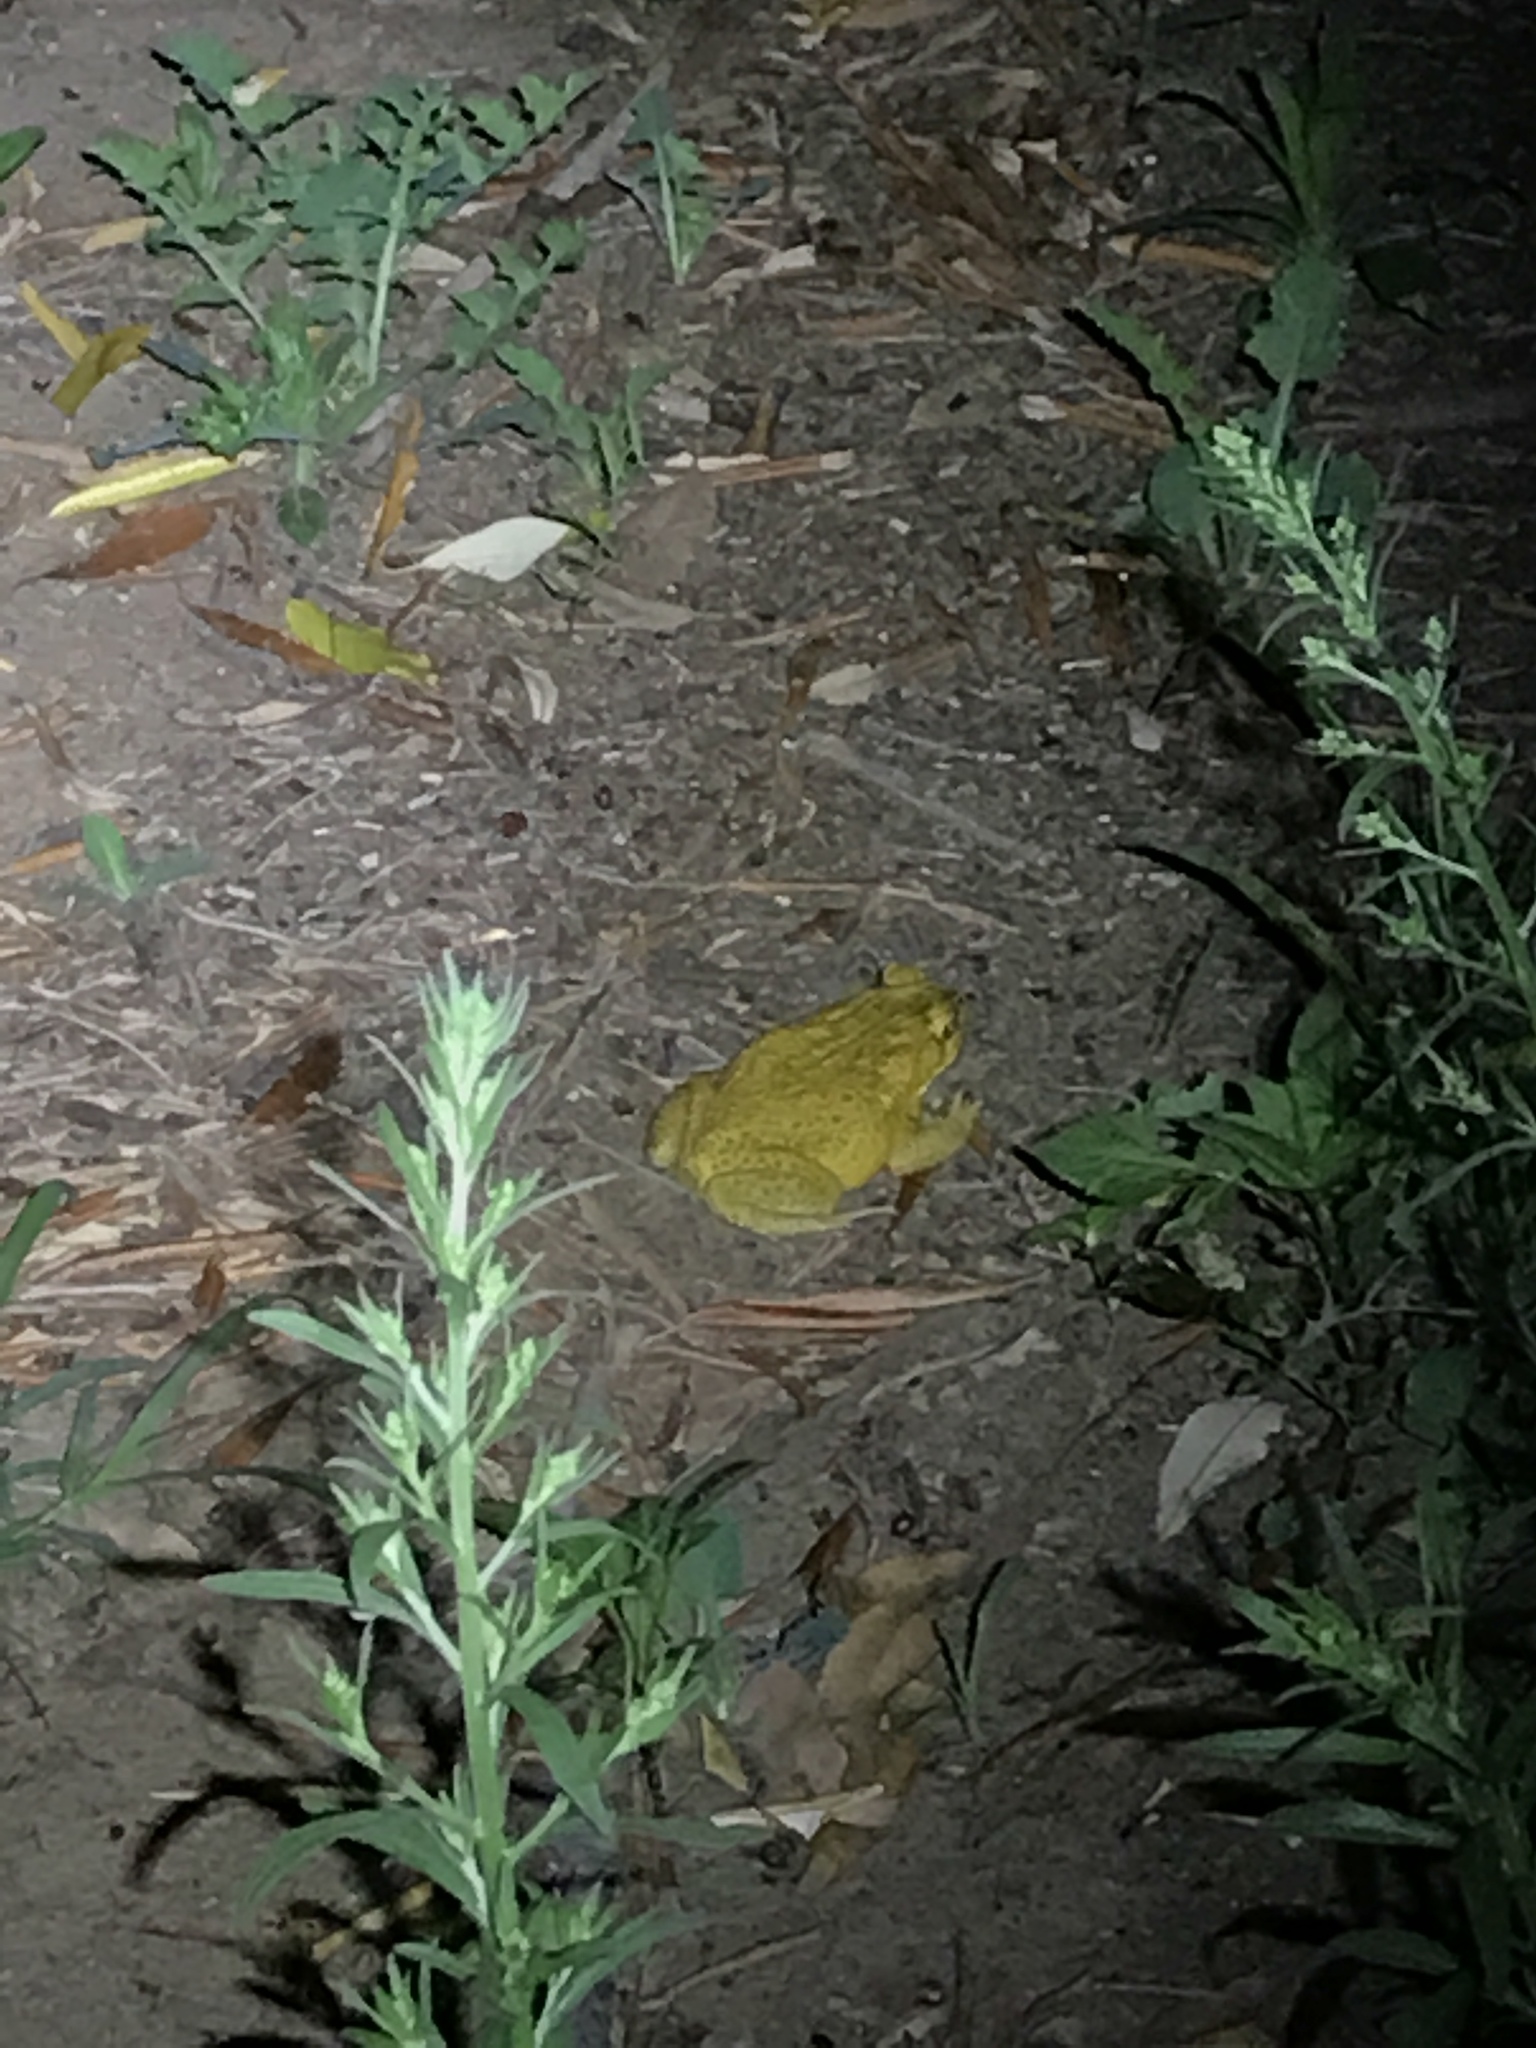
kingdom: Animalia
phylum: Chordata
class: Amphibia
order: Anura
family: Bufonidae
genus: Rhinella
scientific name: Rhinella marina
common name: Cane toad
